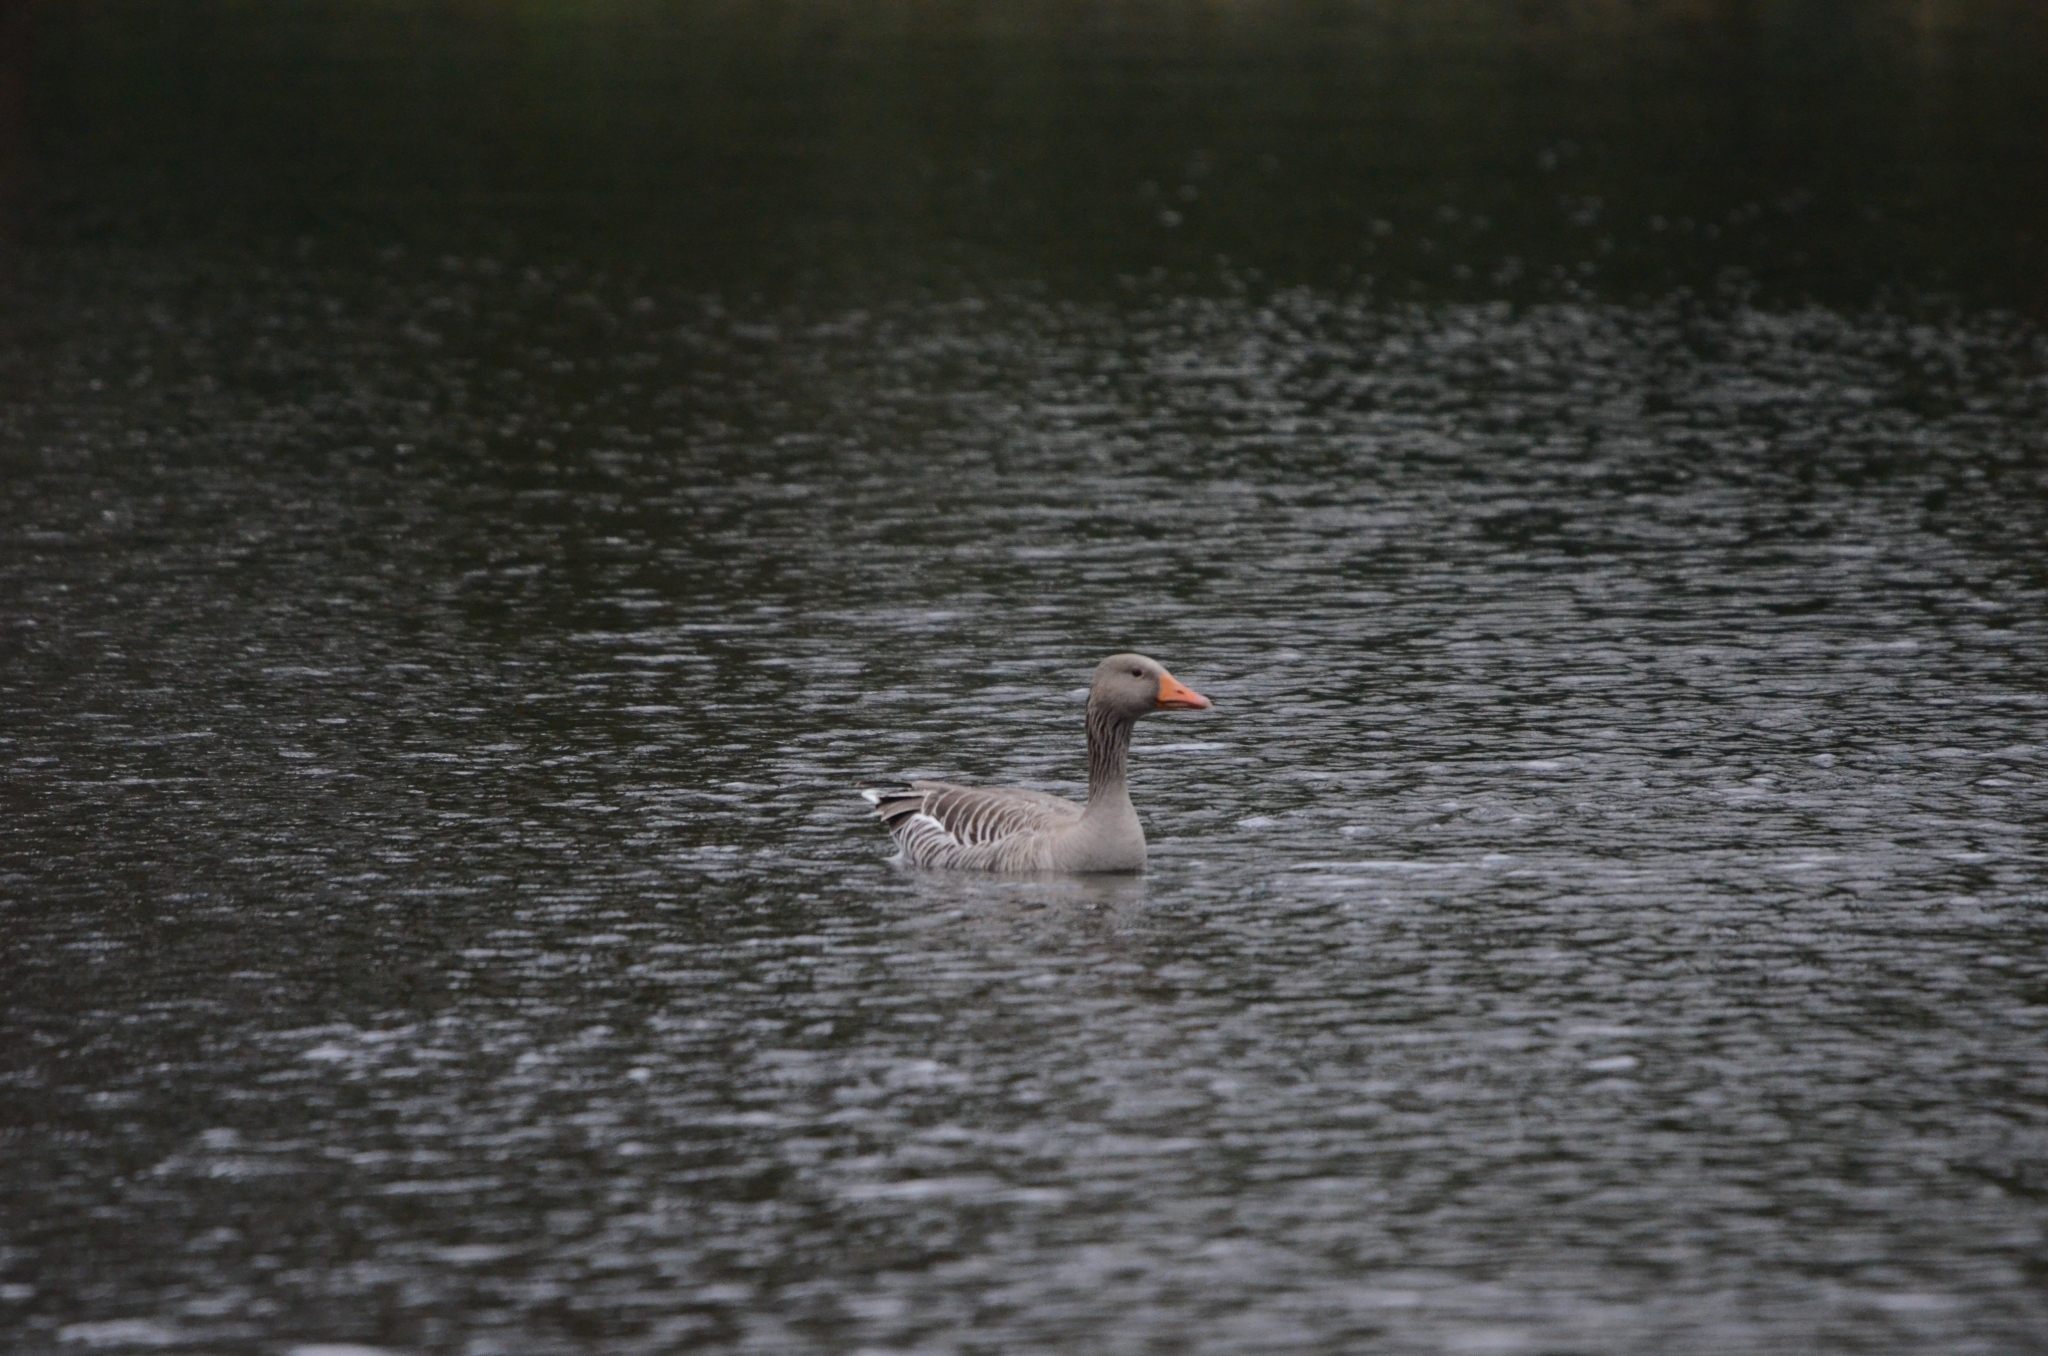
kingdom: Animalia
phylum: Chordata
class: Aves
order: Anseriformes
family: Anatidae
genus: Anser
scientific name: Anser anser
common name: Greylag goose
